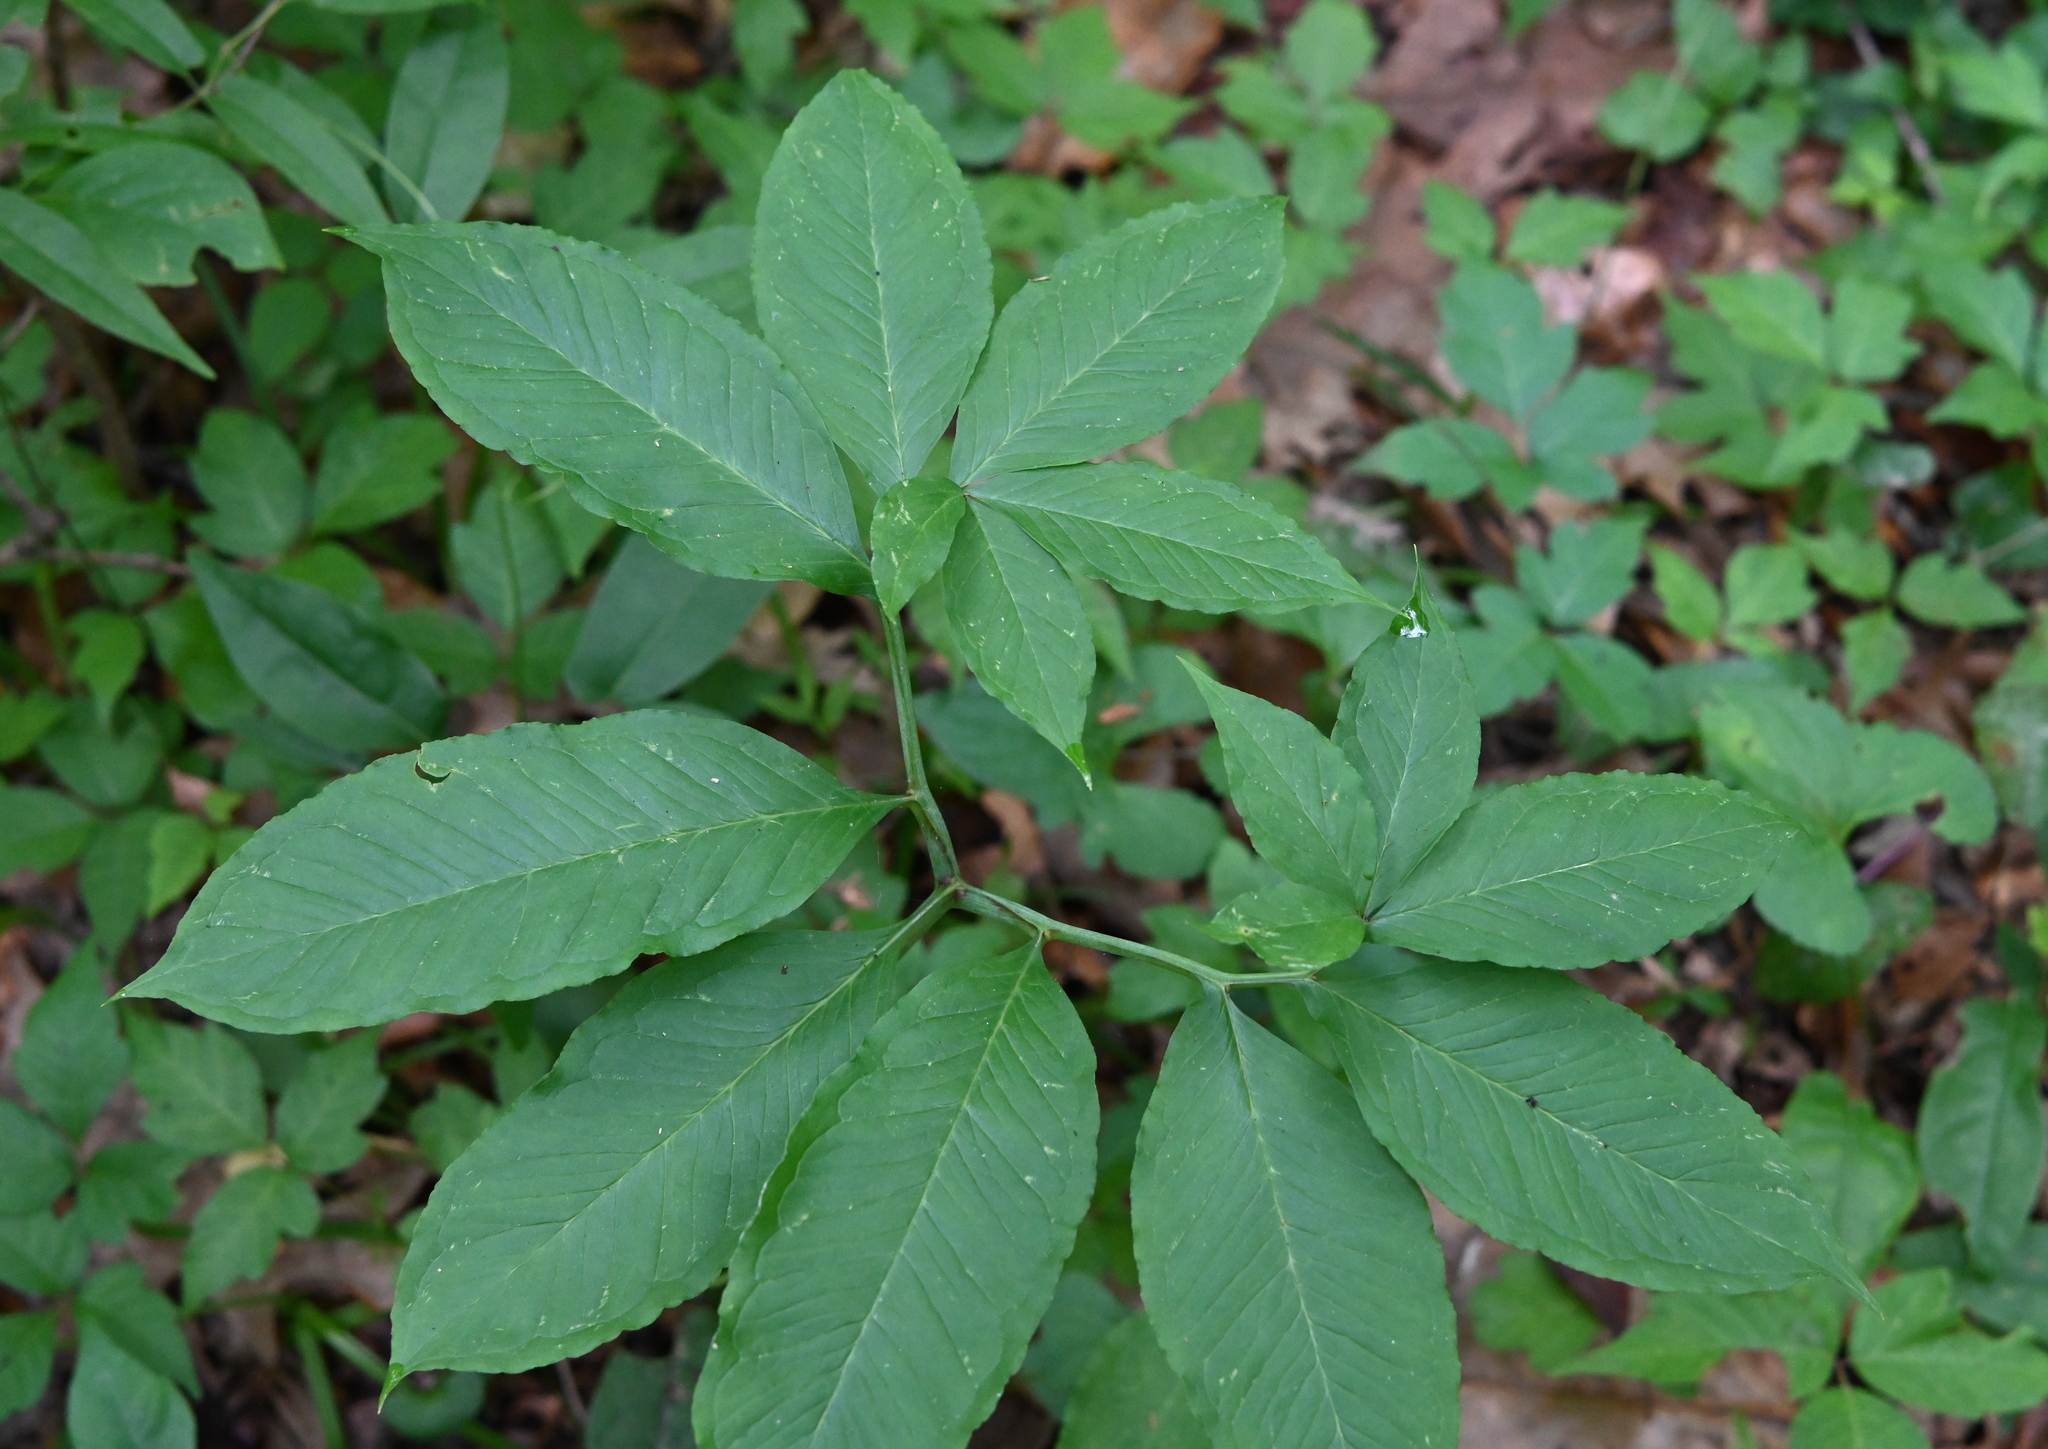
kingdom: Plantae
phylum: Tracheophyta
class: Liliopsida
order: Alismatales
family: Araceae
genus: Arisaema
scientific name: Arisaema dracontium
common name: Dragon-arum
